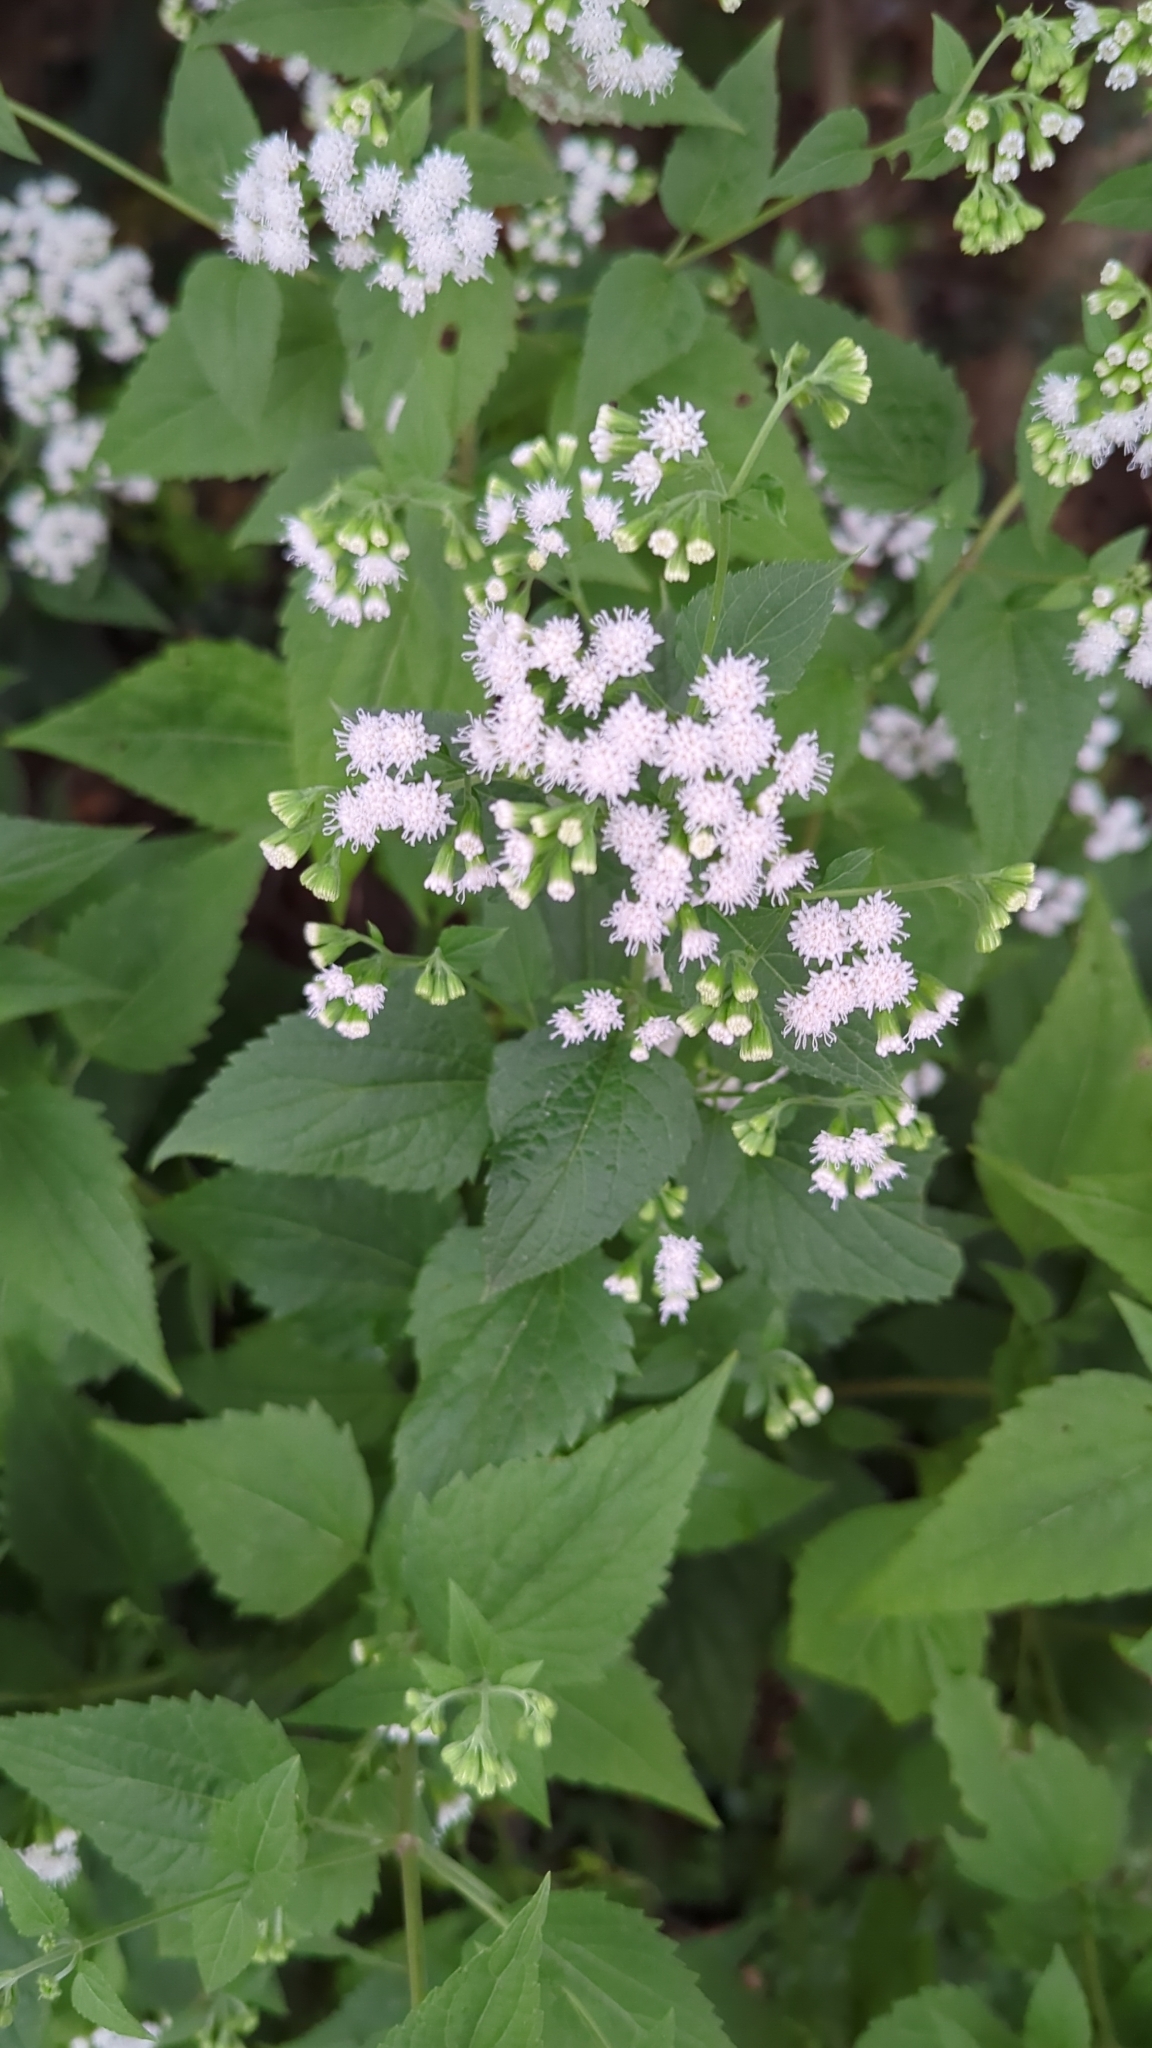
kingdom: Plantae
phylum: Tracheophyta
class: Magnoliopsida
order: Asterales
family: Asteraceae
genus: Ageratina
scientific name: Ageratina altissima
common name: White snakeroot
